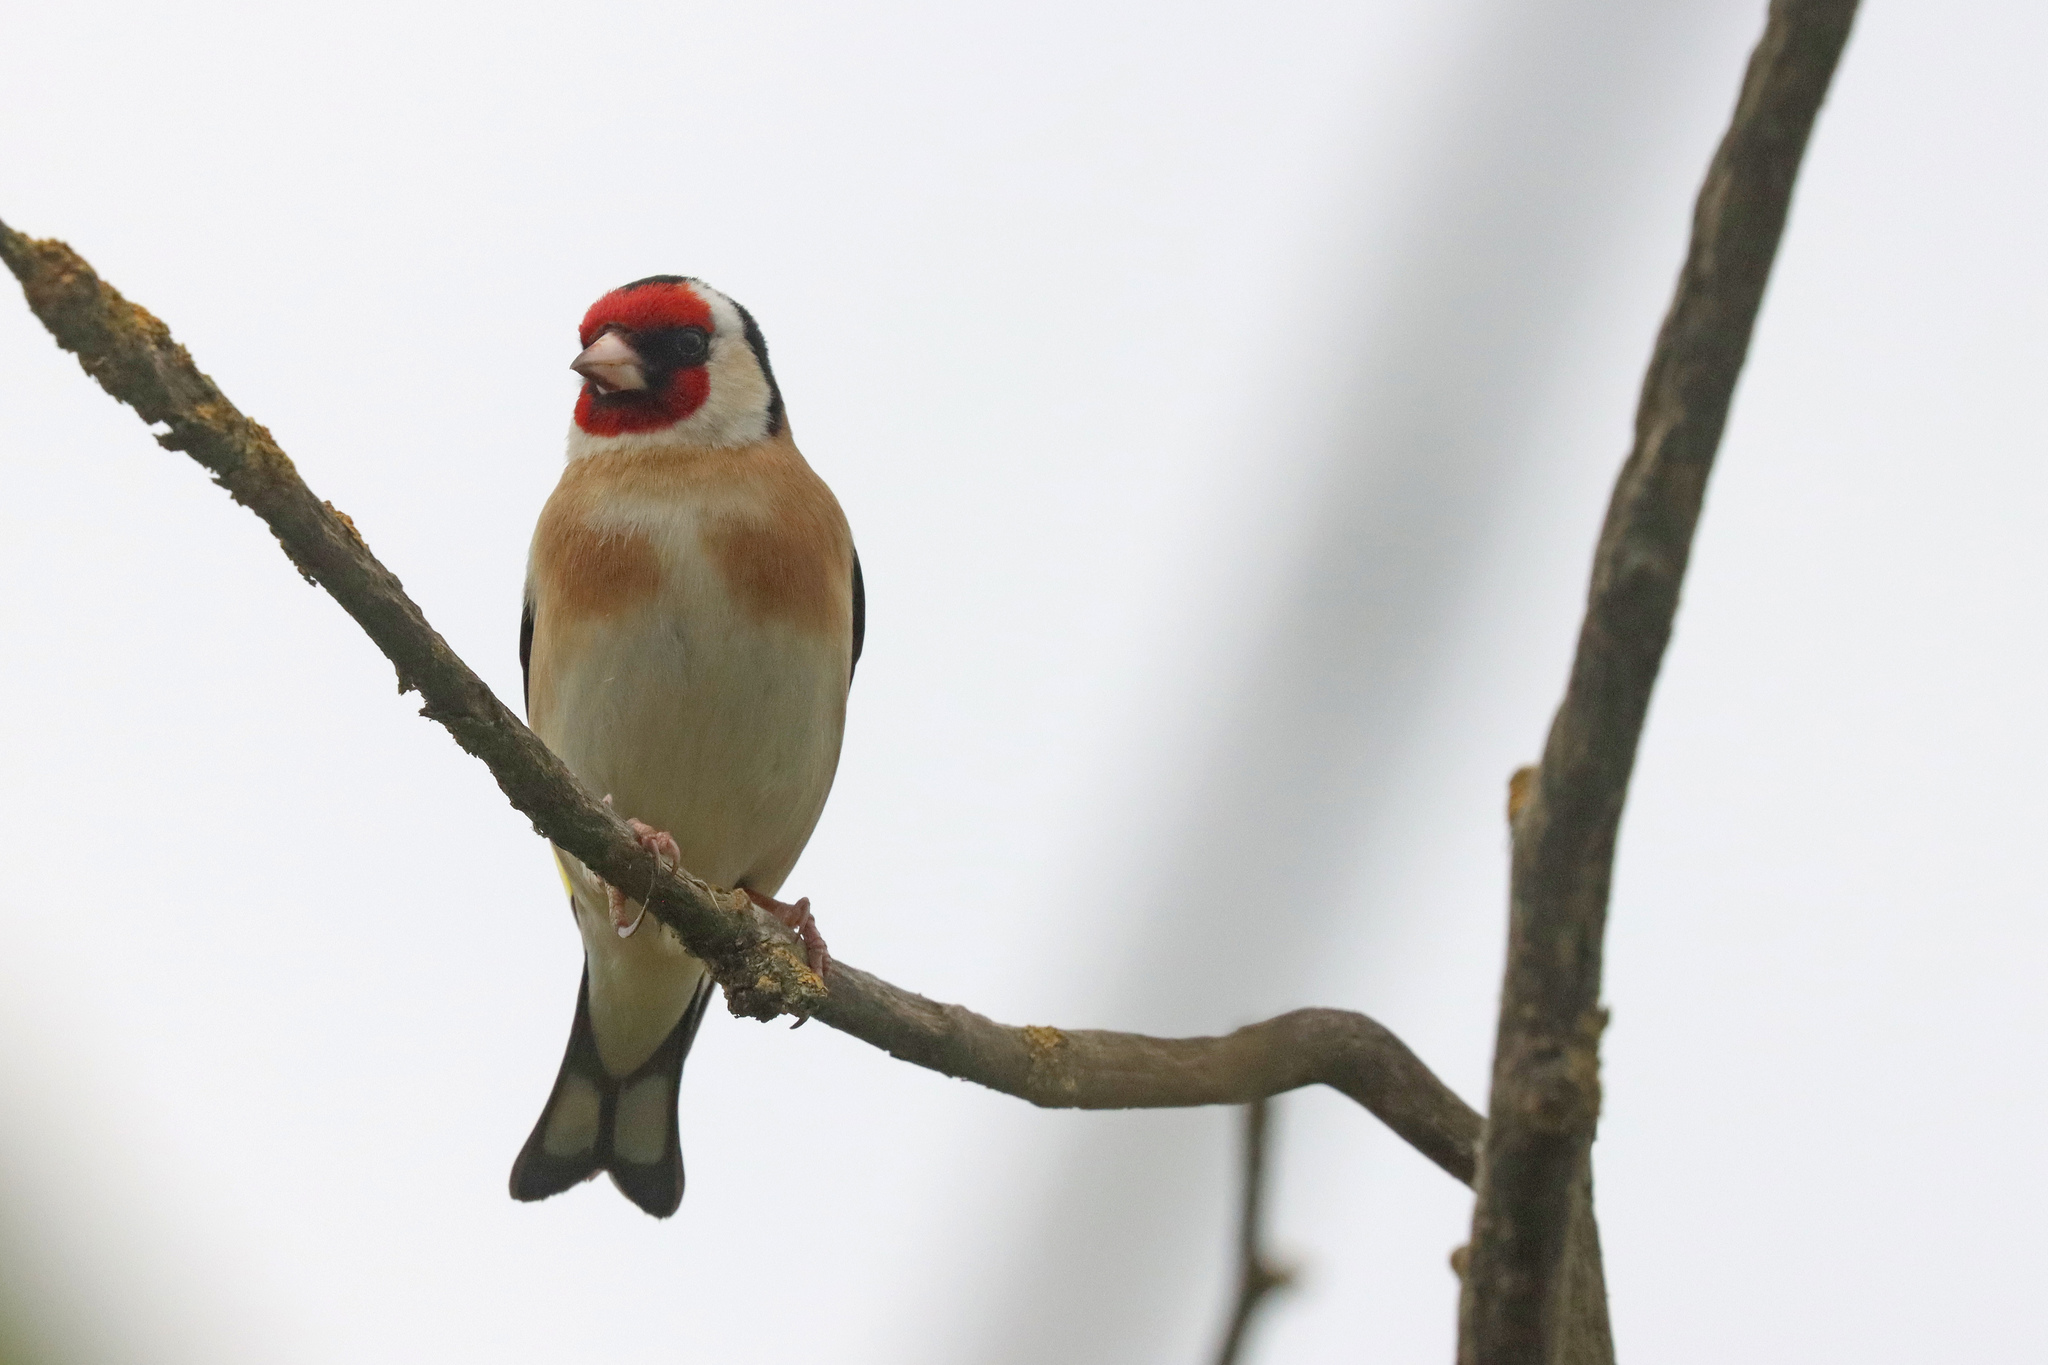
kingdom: Animalia
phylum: Chordata
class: Aves
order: Passeriformes
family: Fringillidae
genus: Carduelis
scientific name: Carduelis carduelis
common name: European goldfinch
